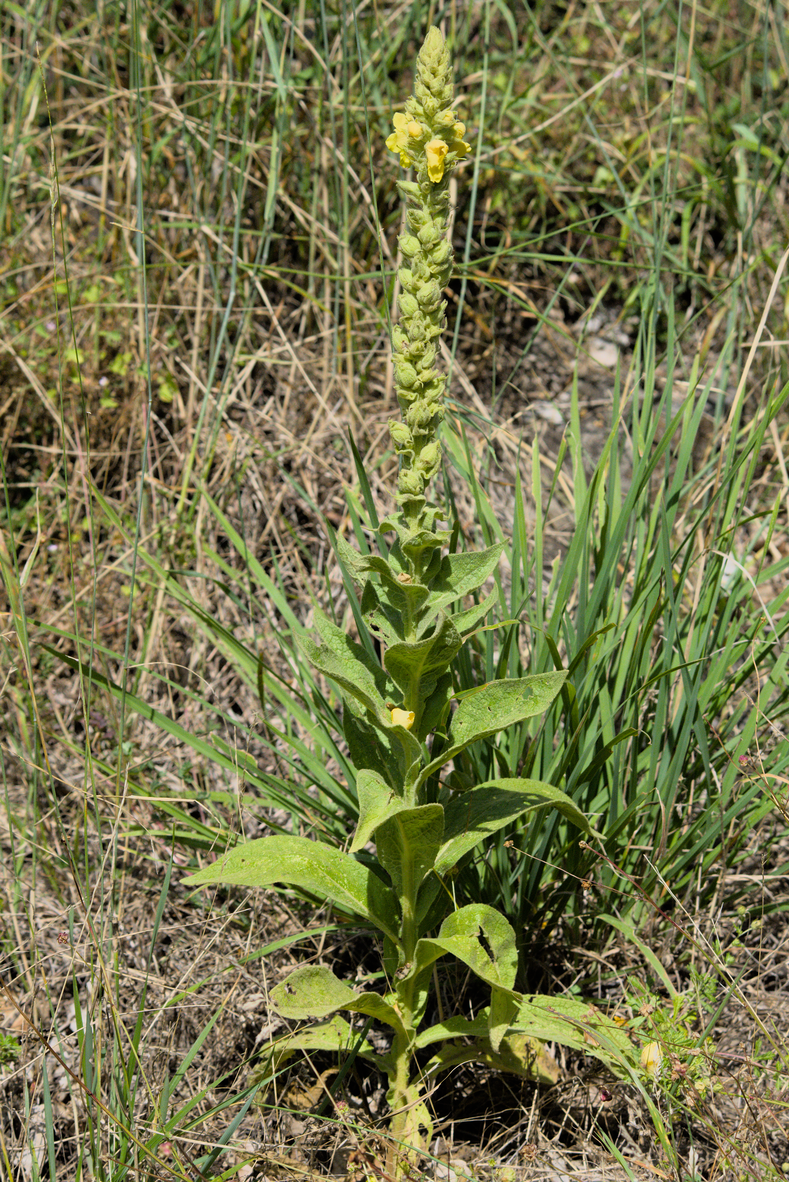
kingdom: Plantae
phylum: Tracheophyta
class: Magnoliopsida
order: Lamiales
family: Scrophulariaceae
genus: Verbascum
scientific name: Verbascum thapsus
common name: Common mullein
